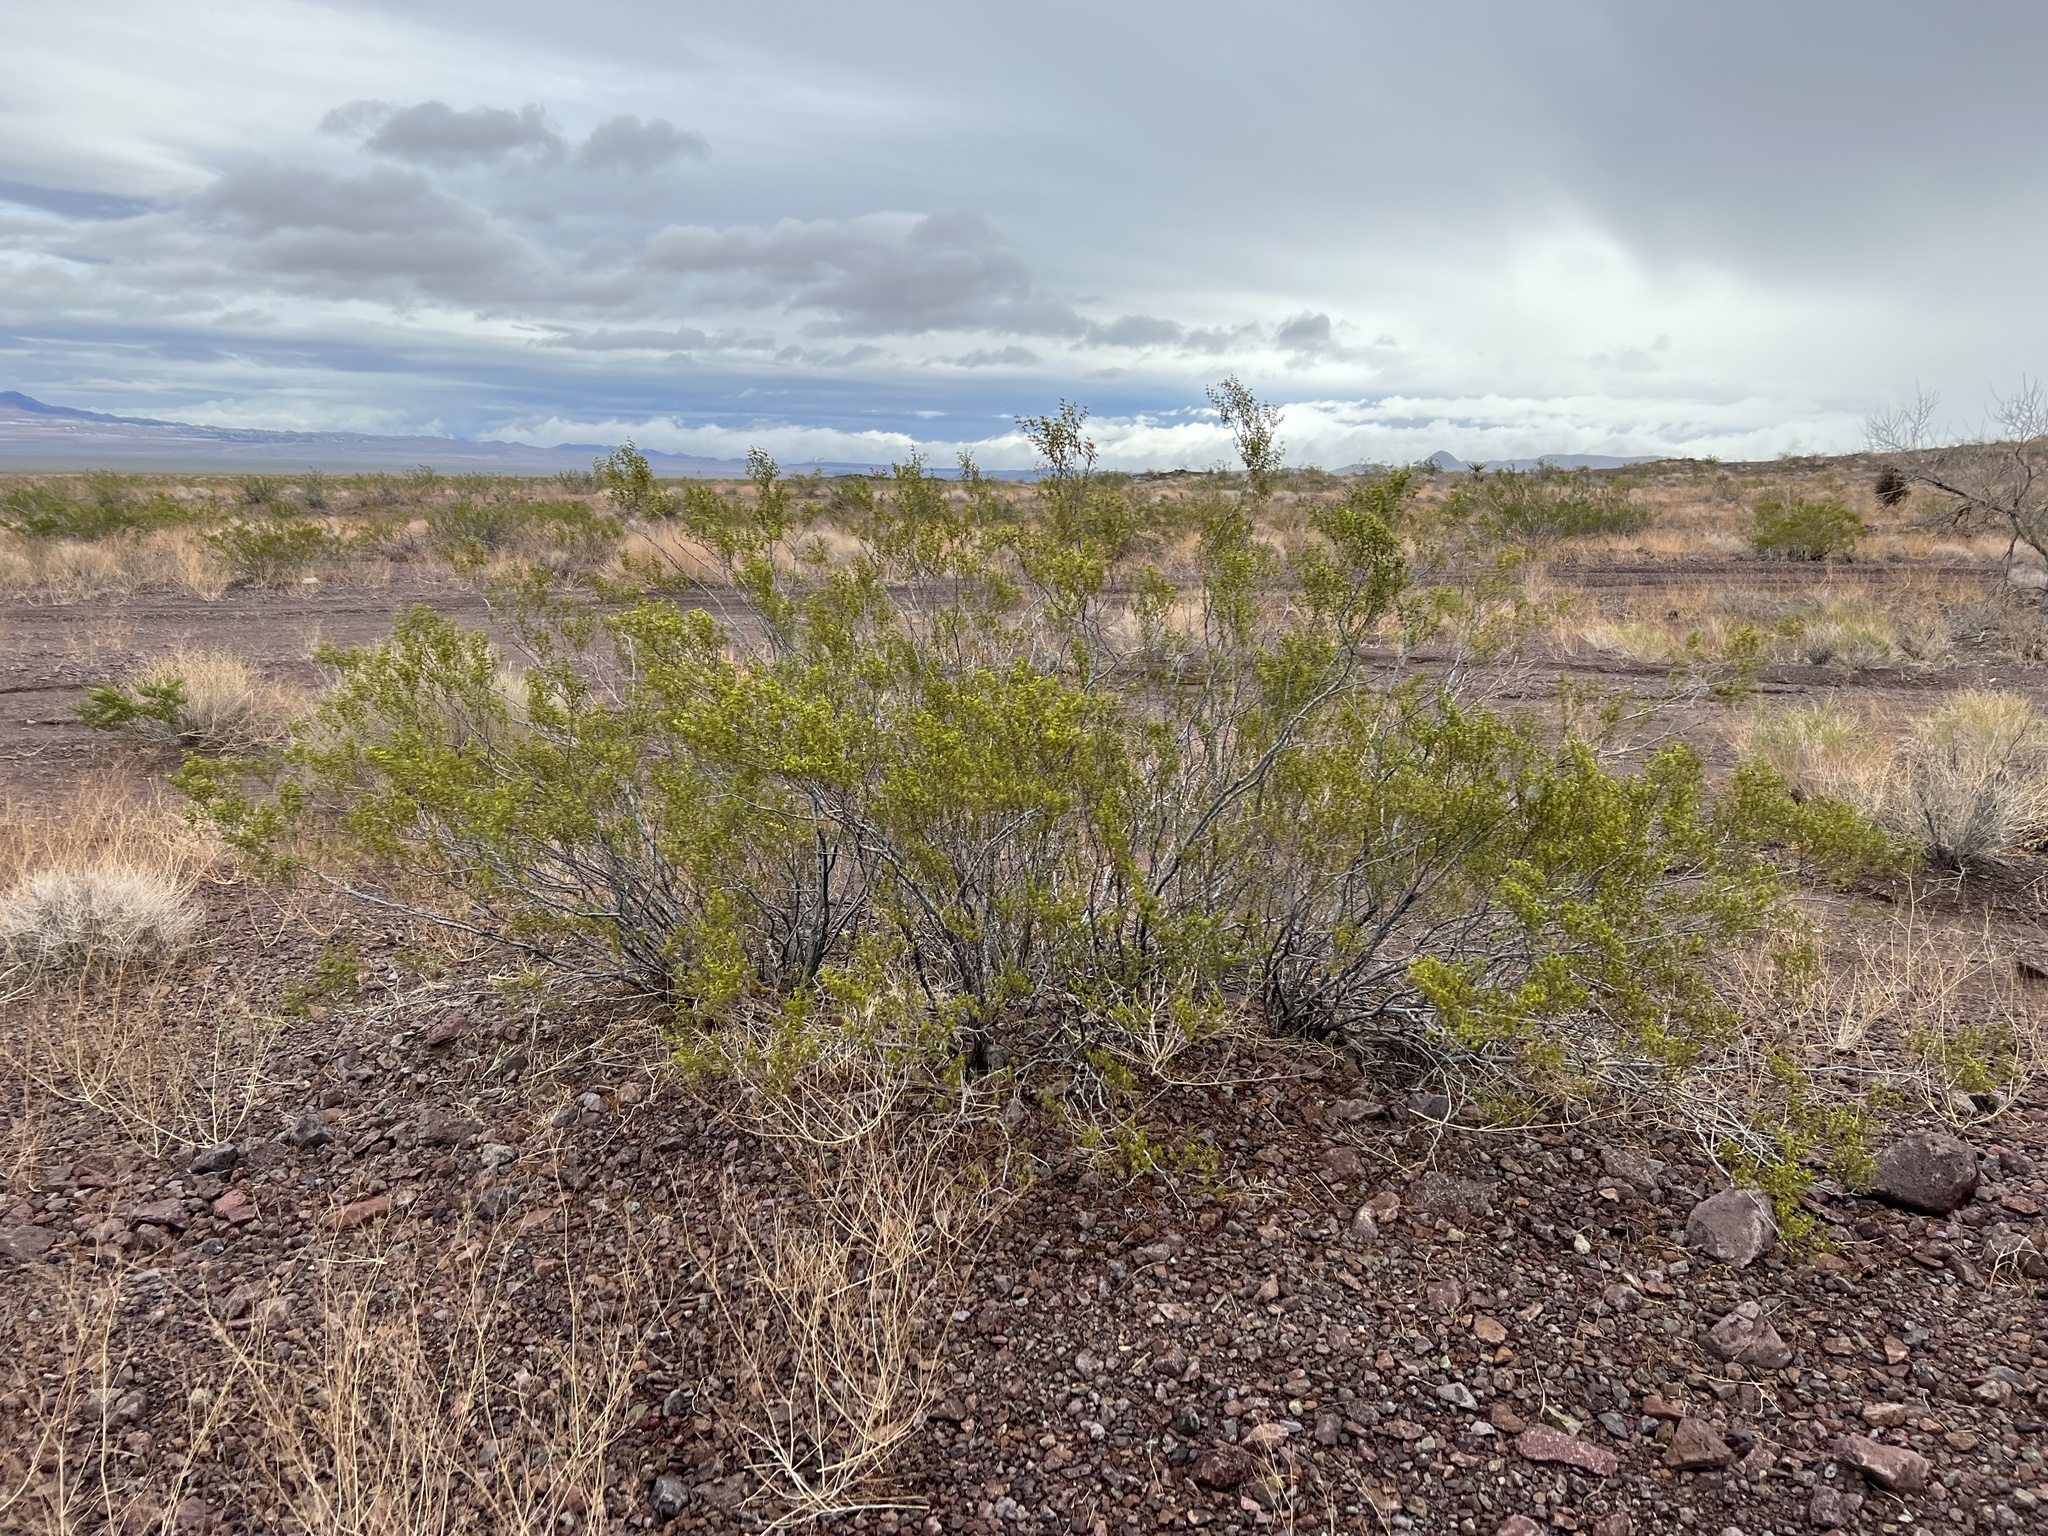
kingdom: Plantae
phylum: Tracheophyta
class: Magnoliopsida
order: Zygophyllales
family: Zygophyllaceae
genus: Larrea
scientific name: Larrea tridentata
